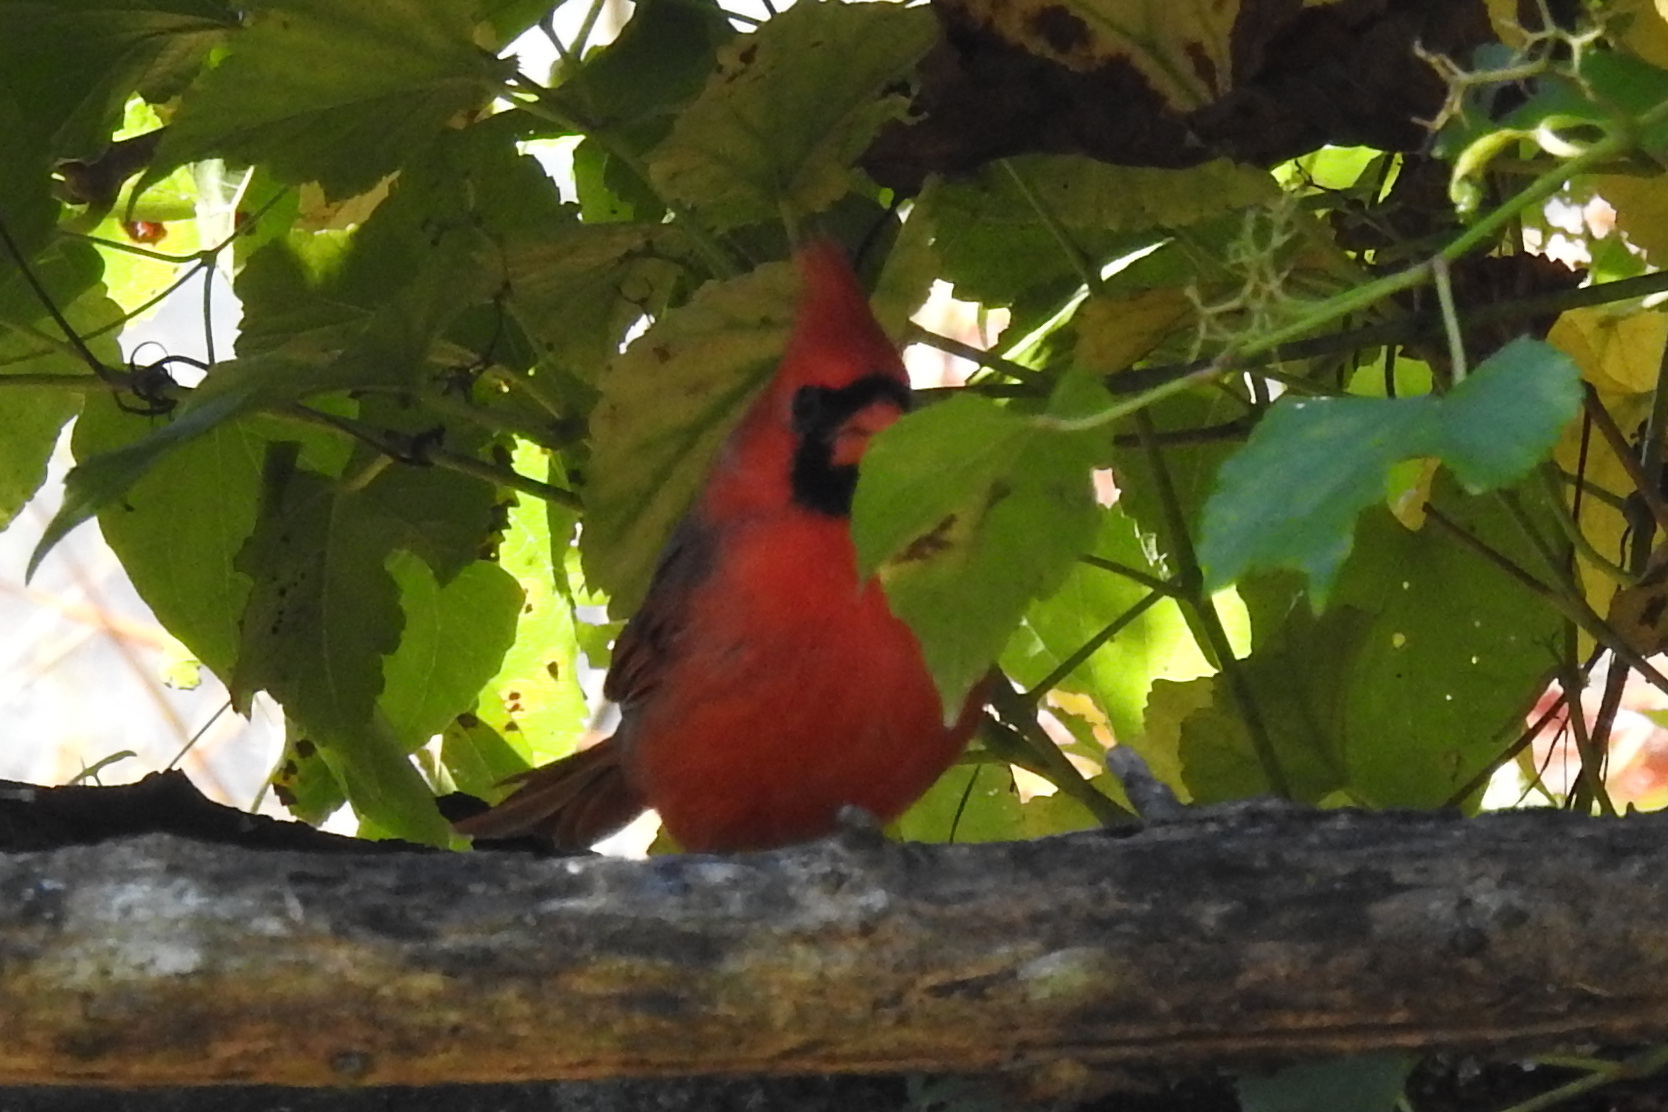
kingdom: Animalia
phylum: Chordata
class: Aves
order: Passeriformes
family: Cardinalidae
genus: Cardinalis
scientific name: Cardinalis cardinalis
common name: Northern cardinal
